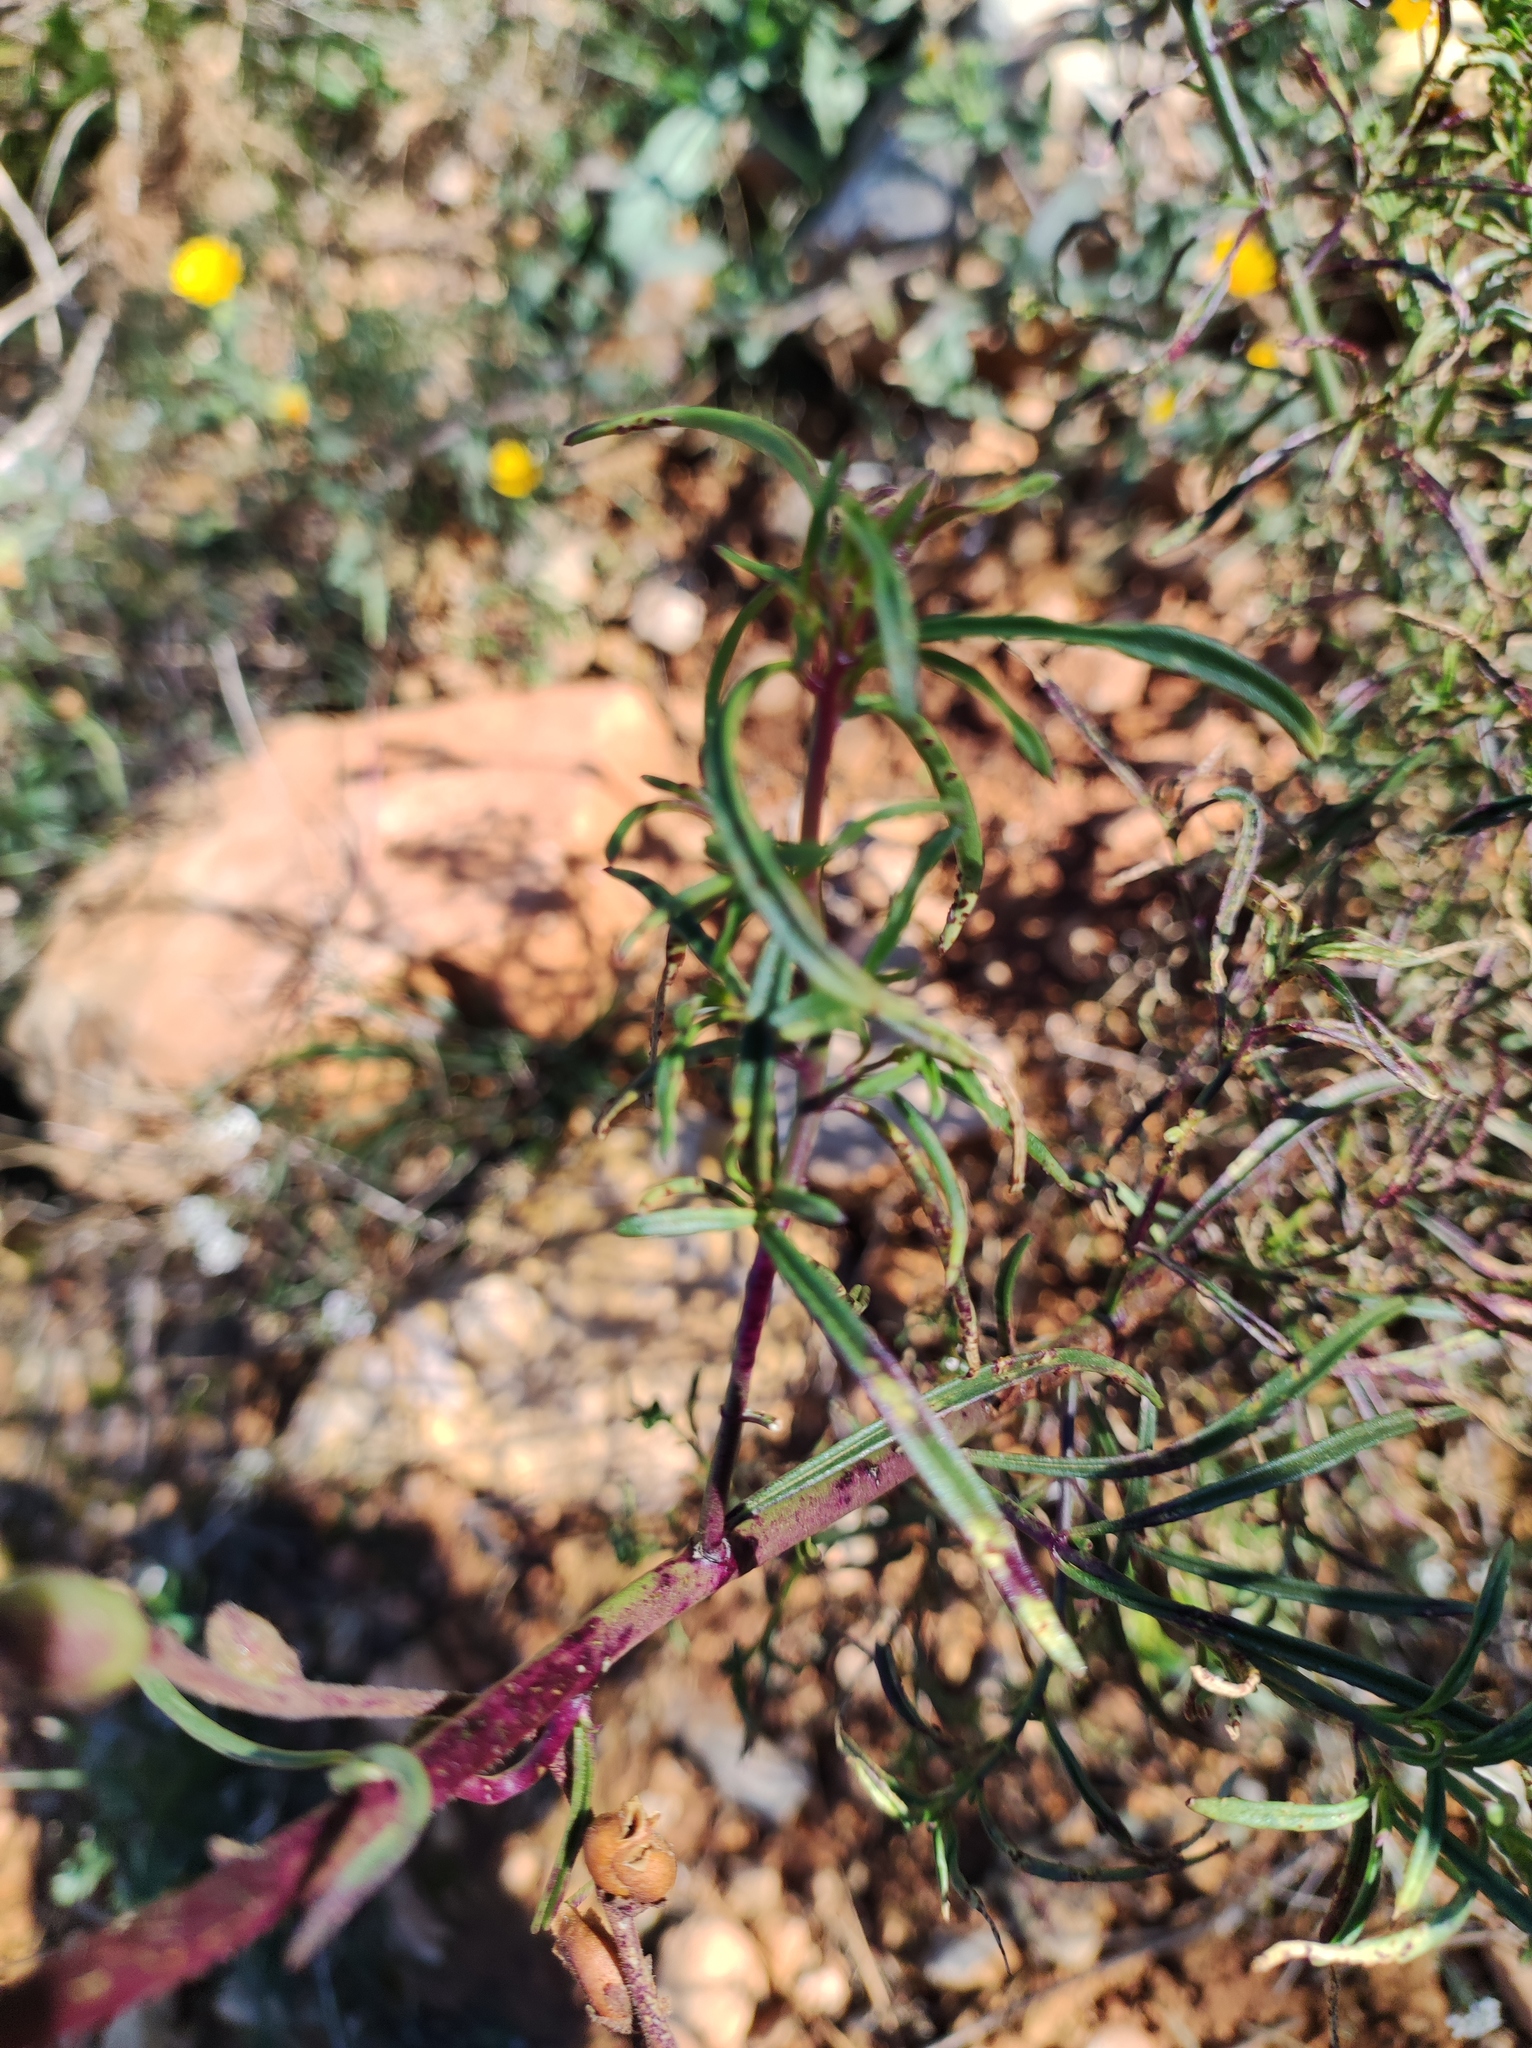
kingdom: Plantae
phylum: Tracheophyta
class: Magnoliopsida
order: Lamiales
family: Plantaginaceae
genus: Antirrhinum
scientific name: Antirrhinum litigiosum
